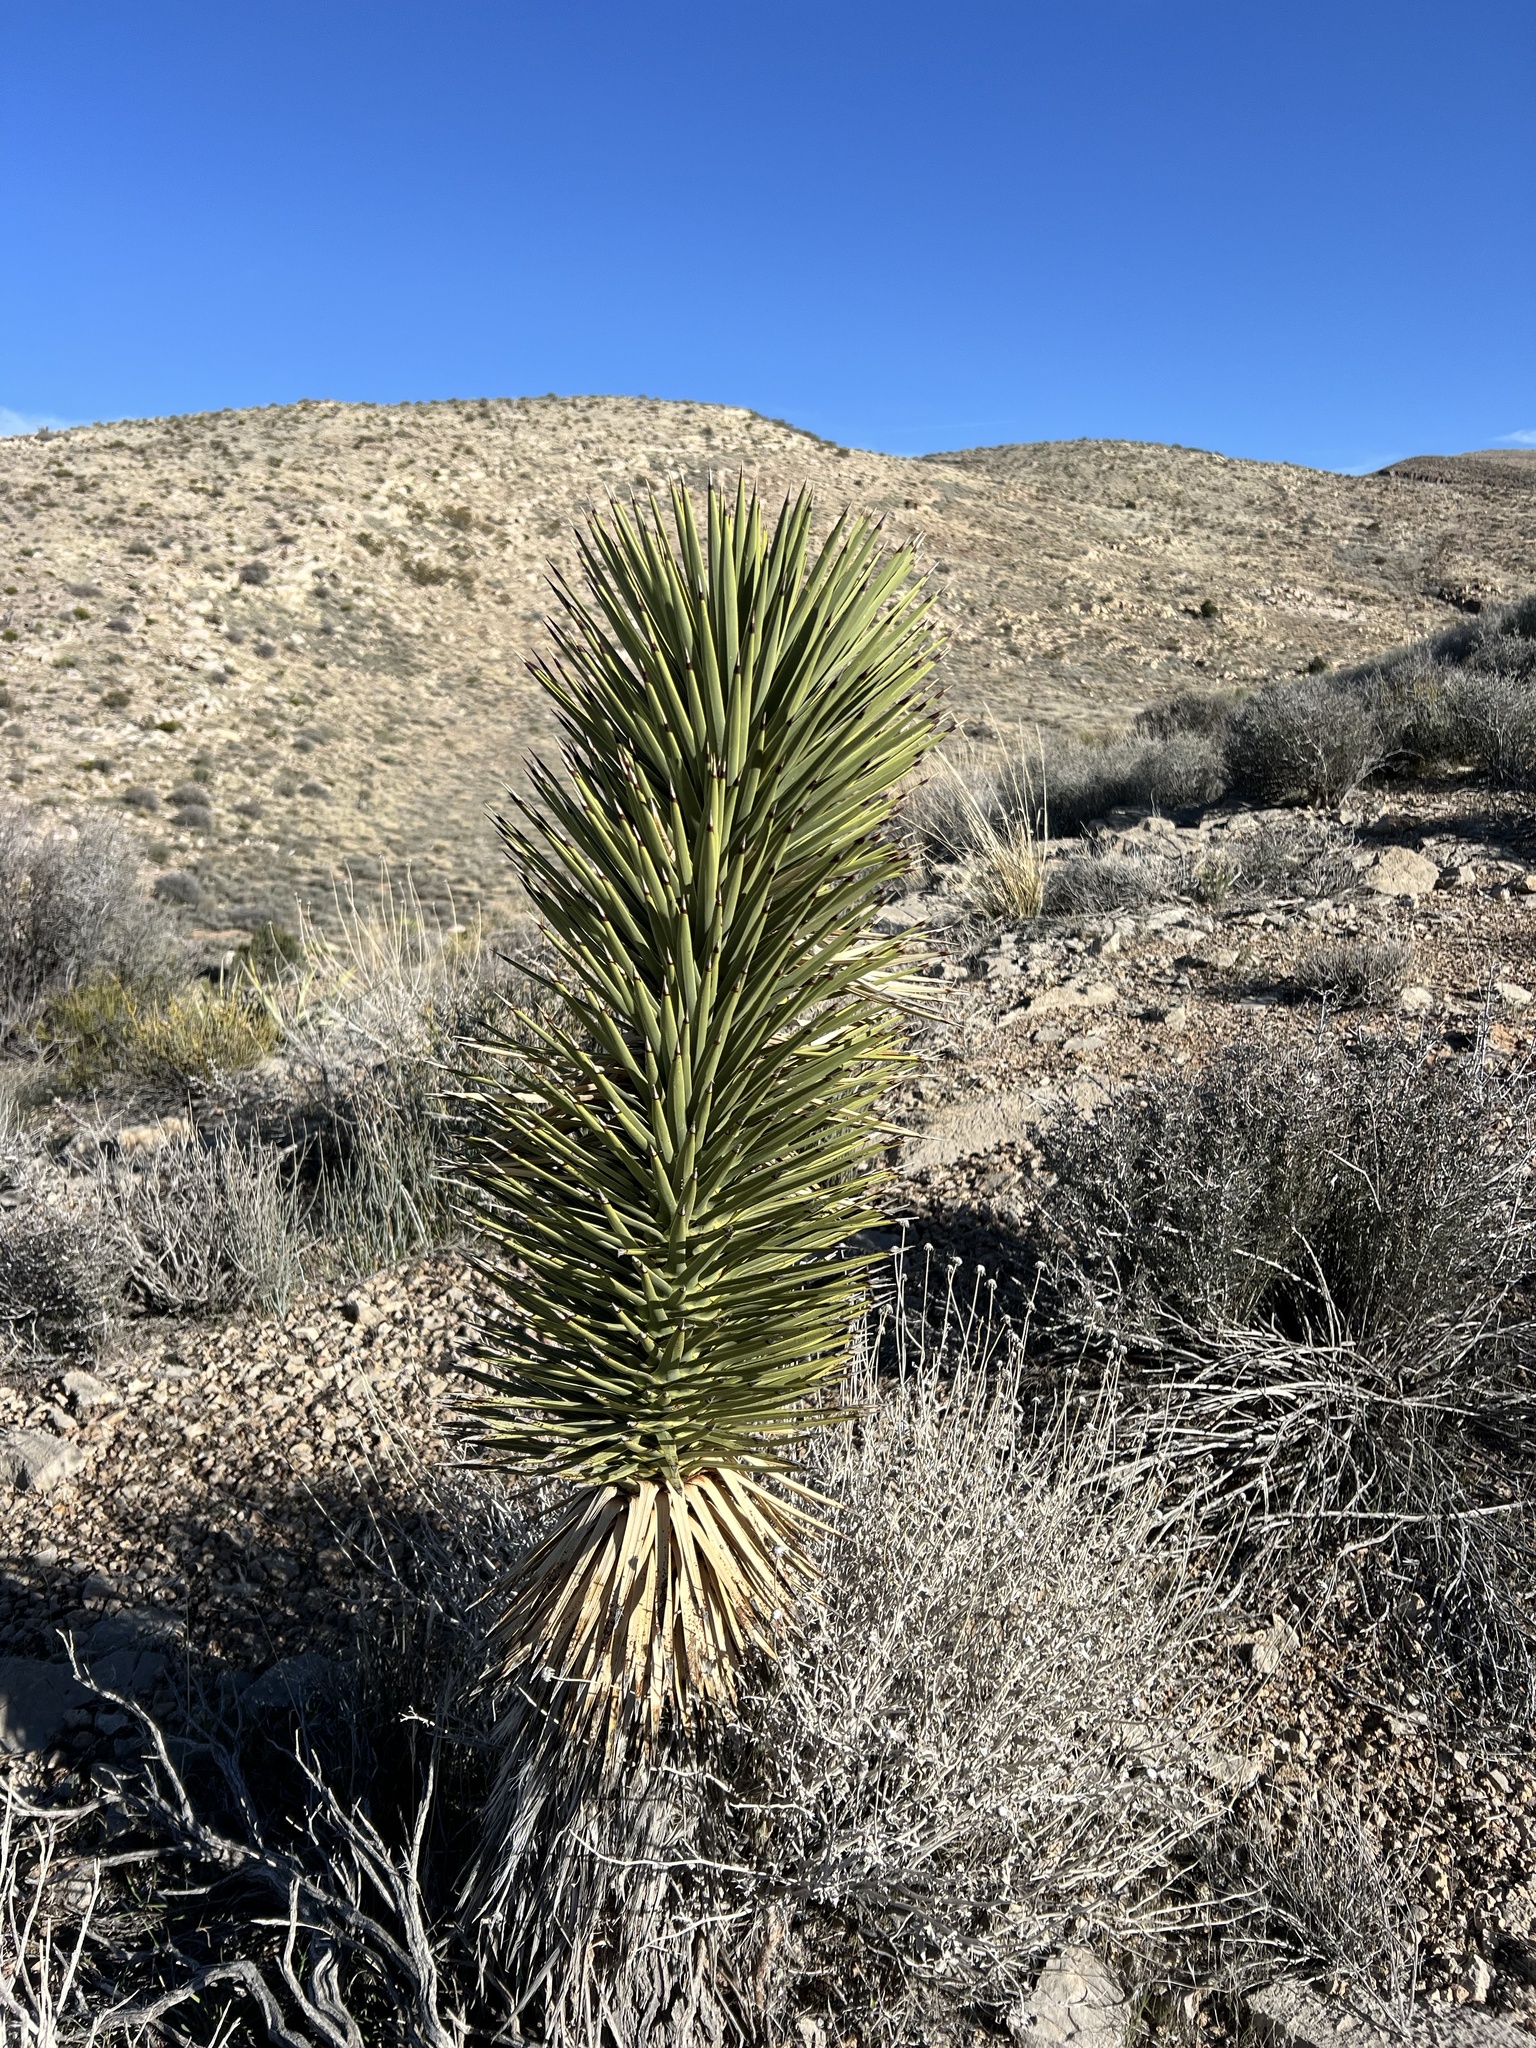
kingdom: Plantae
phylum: Tracheophyta
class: Liliopsida
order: Asparagales
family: Asparagaceae
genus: Yucca
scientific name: Yucca brevifolia
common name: Joshua tree
